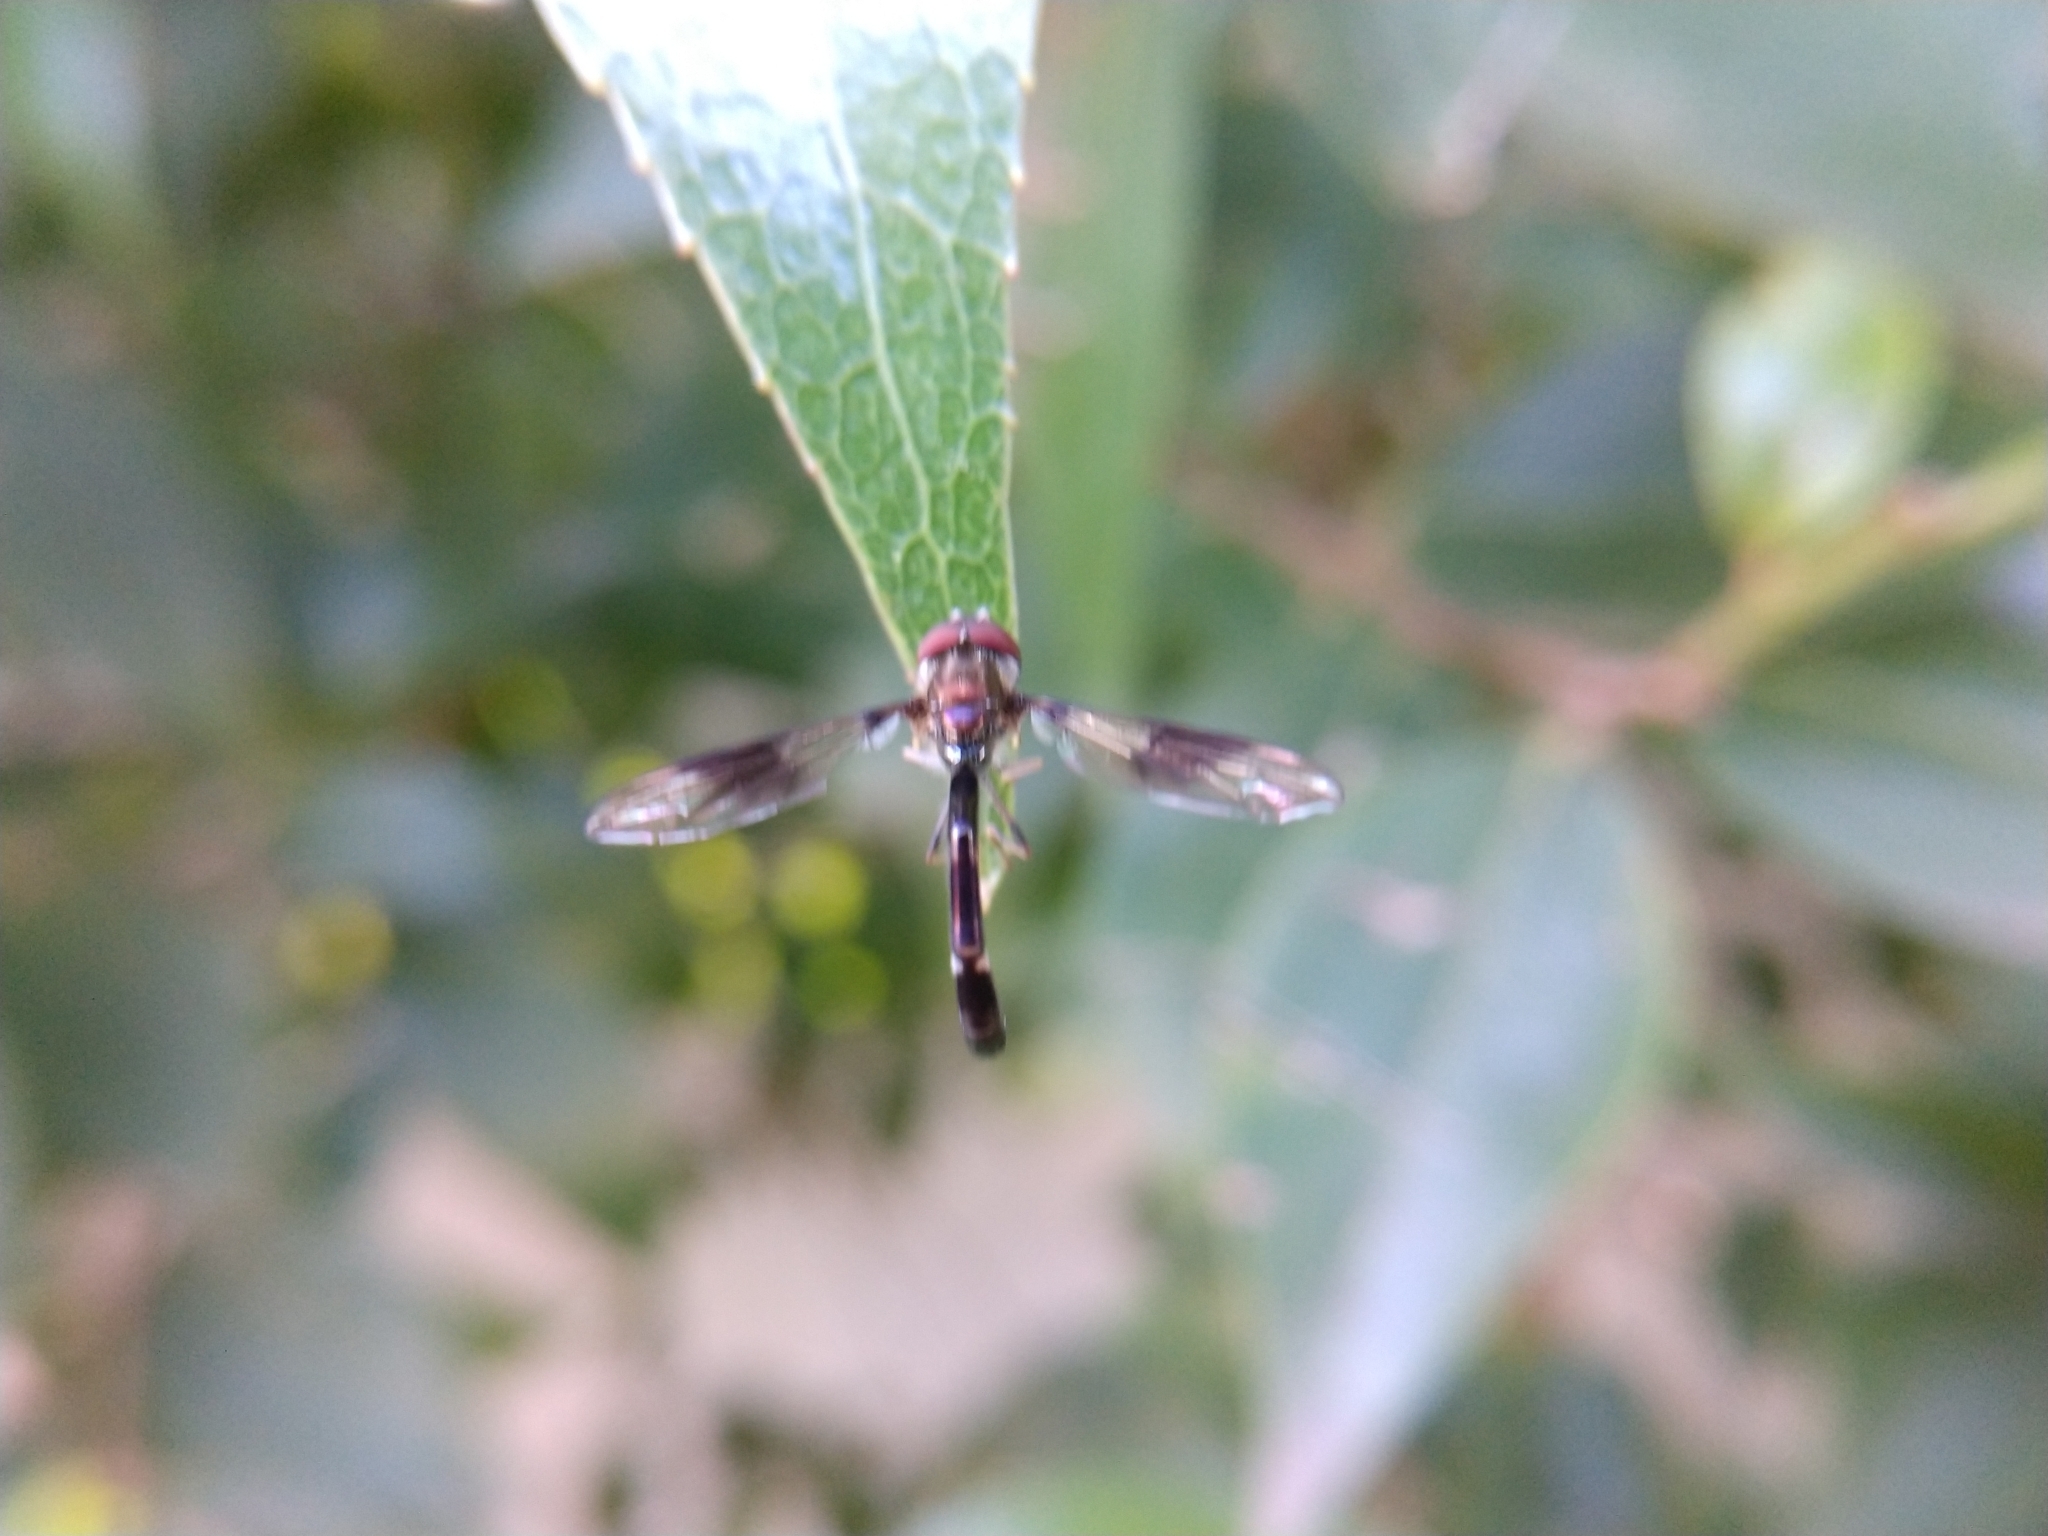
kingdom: Animalia
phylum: Arthropoda
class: Insecta
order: Diptera
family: Syrphidae
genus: Hypocritanus
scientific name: Hypocritanus fascipennis
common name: Eastern band-winged hover fly
